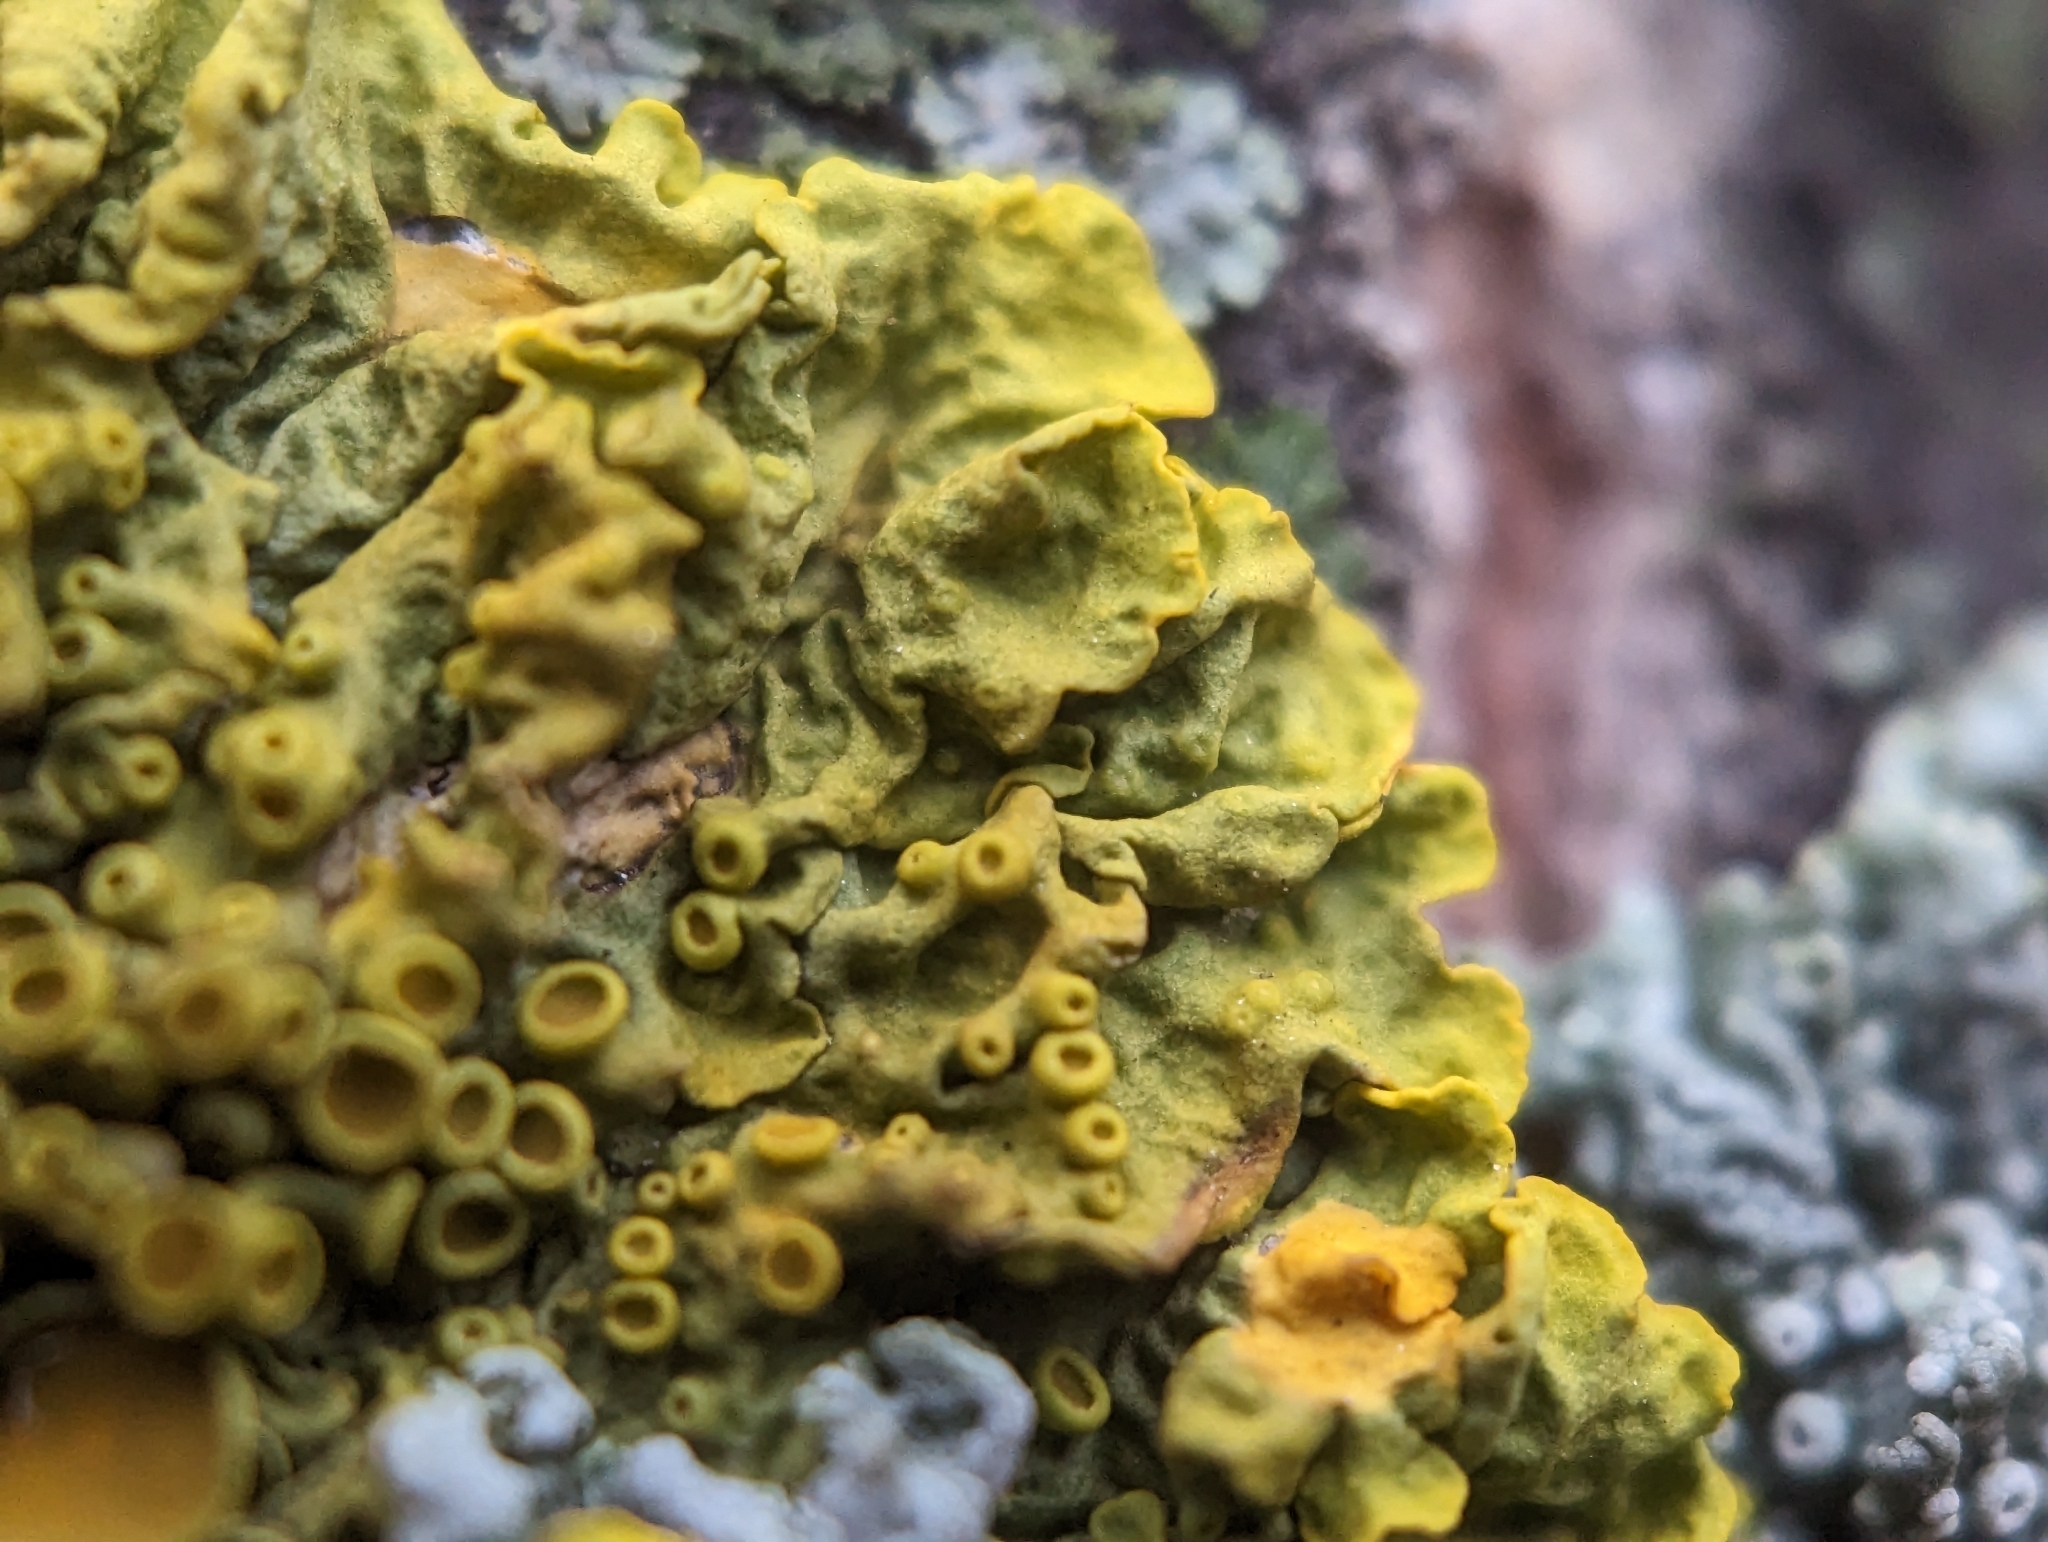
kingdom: Fungi
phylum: Ascomycota
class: Lecanoromycetes
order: Teloschistales
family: Teloschistaceae
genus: Xanthoria
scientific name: Xanthoria parietina
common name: Common orange lichen
